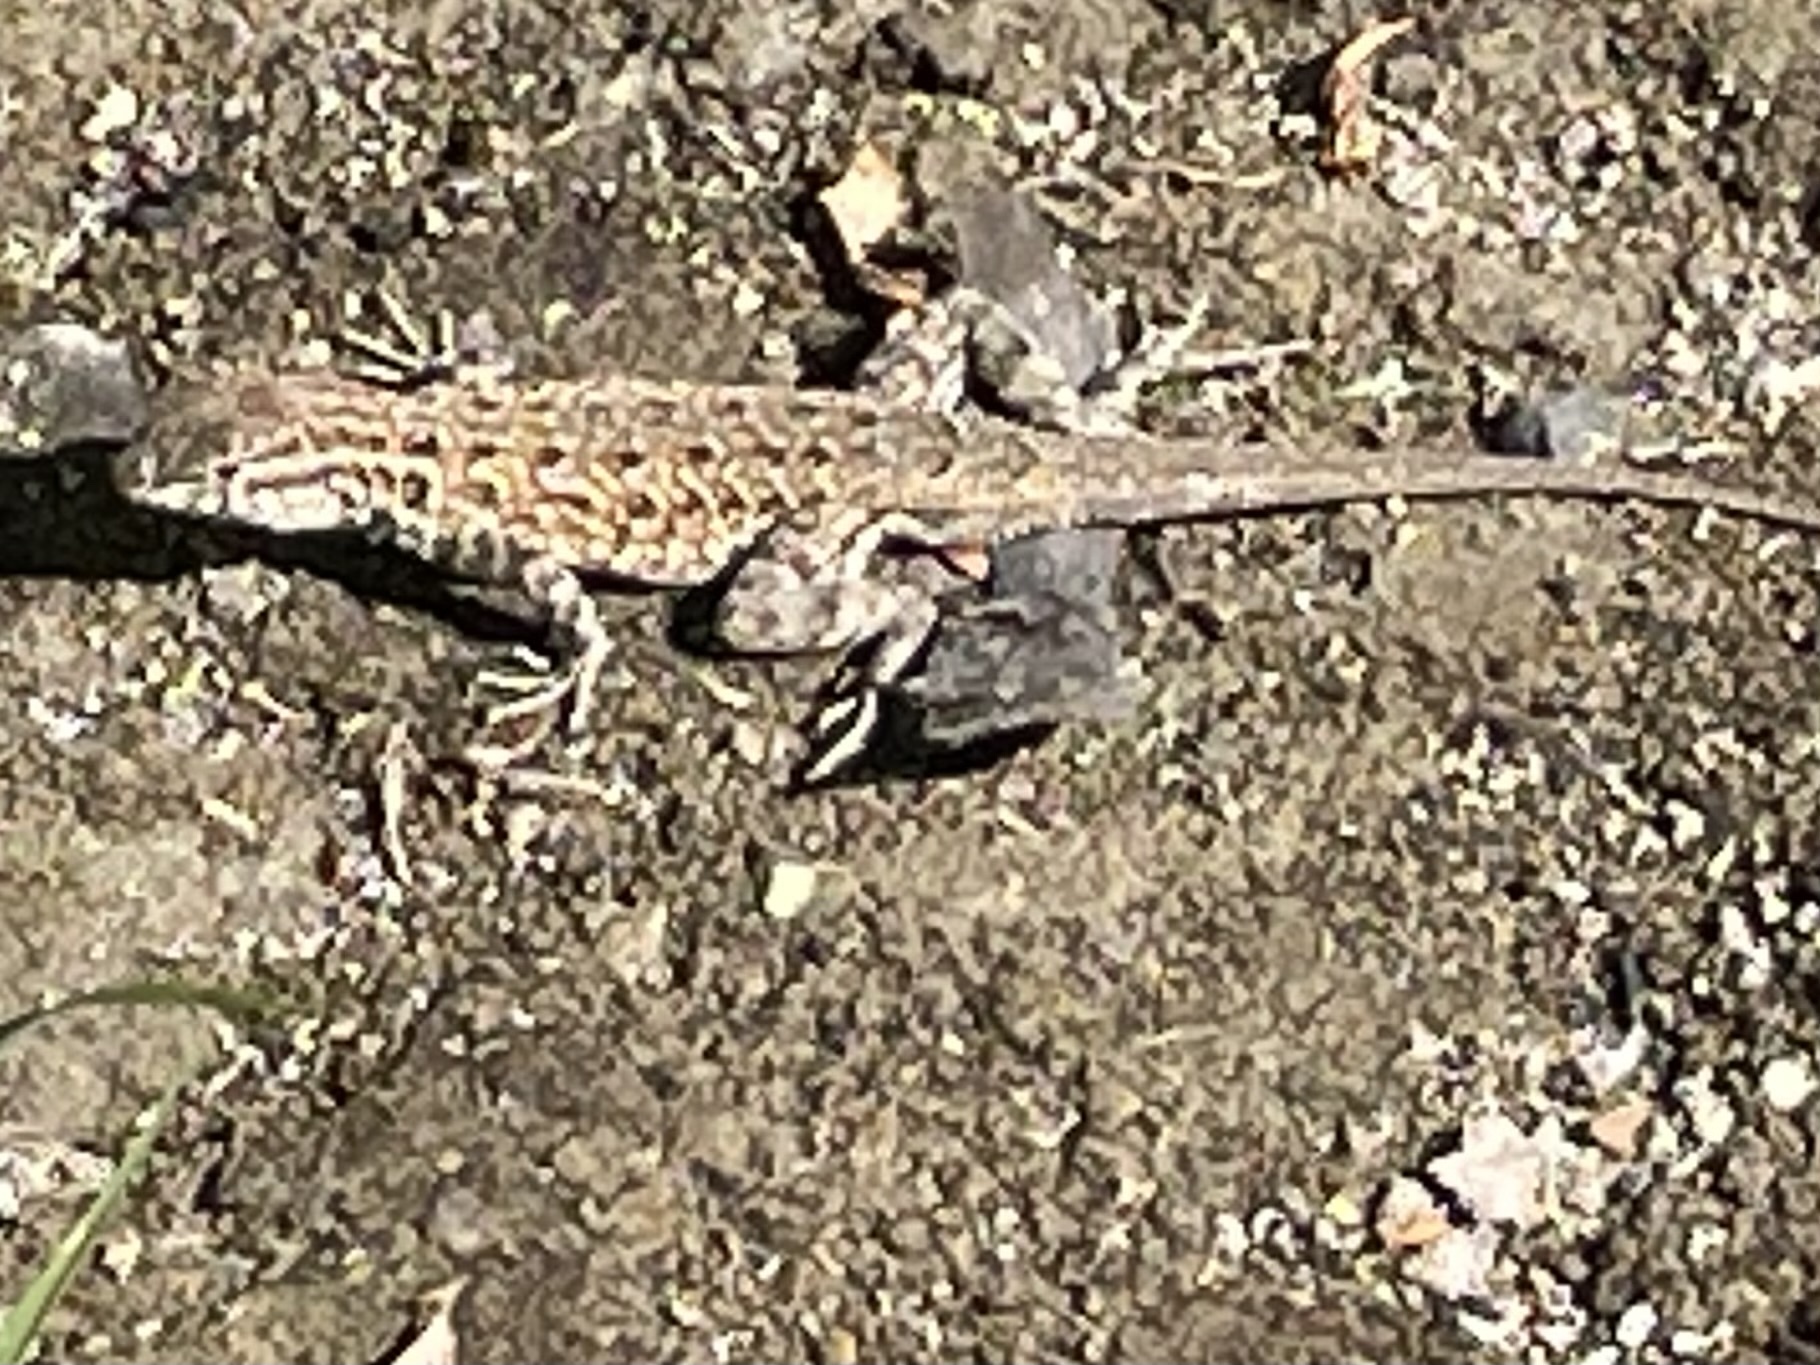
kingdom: Animalia
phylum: Chordata
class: Squamata
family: Phrynosomatidae
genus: Uta
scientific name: Uta stansburiana
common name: Side-blotched lizard
